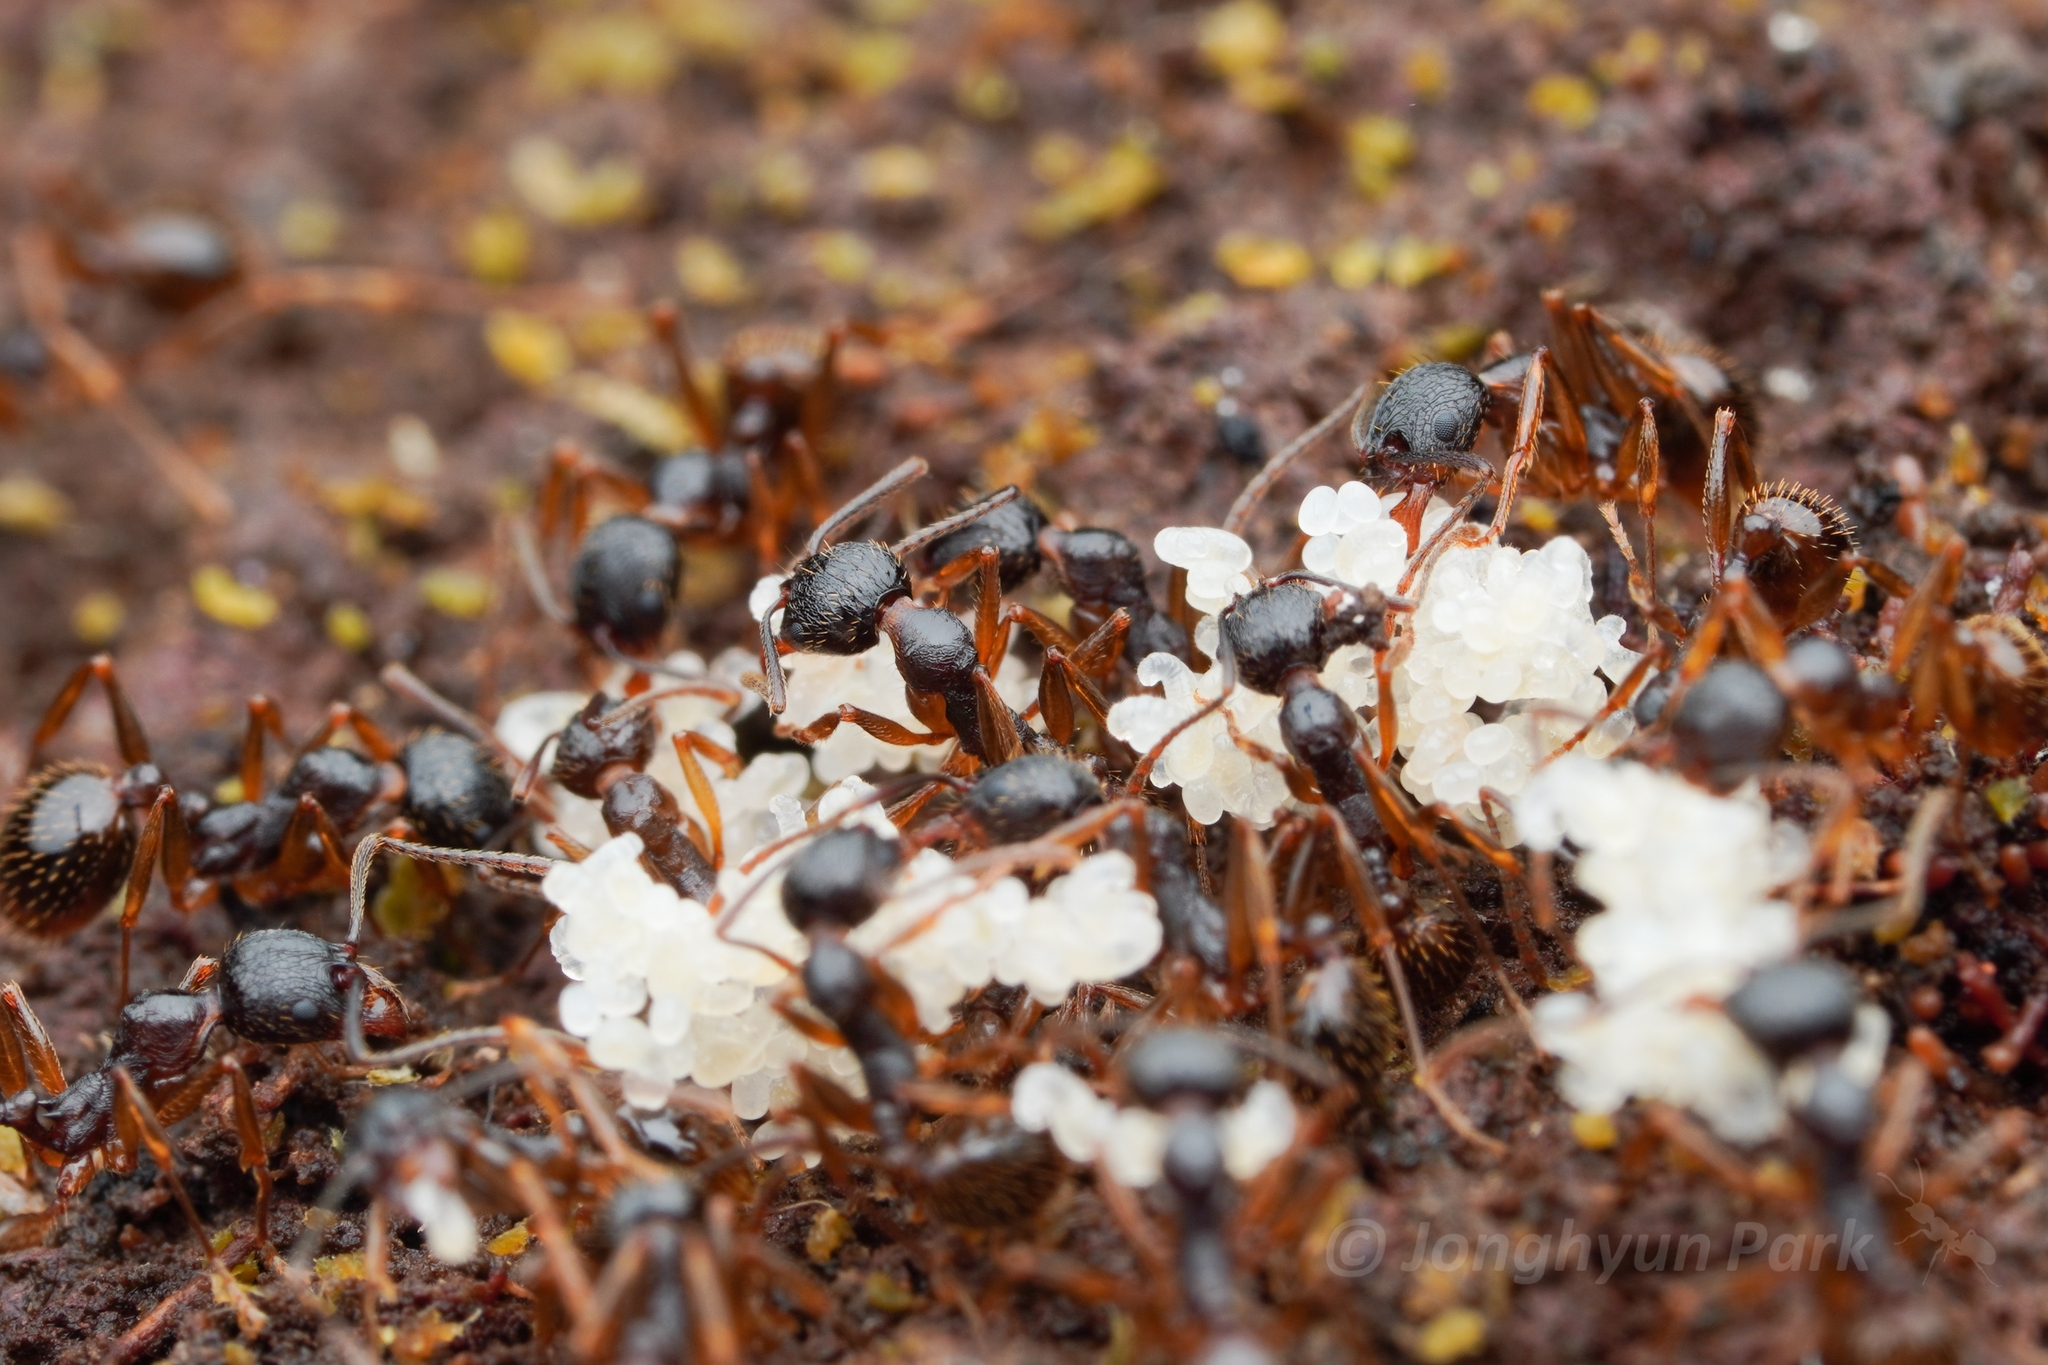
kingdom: Animalia
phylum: Arthropoda
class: Insecta
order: Hymenoptera
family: Formicidae
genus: Aphaenogaster
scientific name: Aphaenogaster japonica
